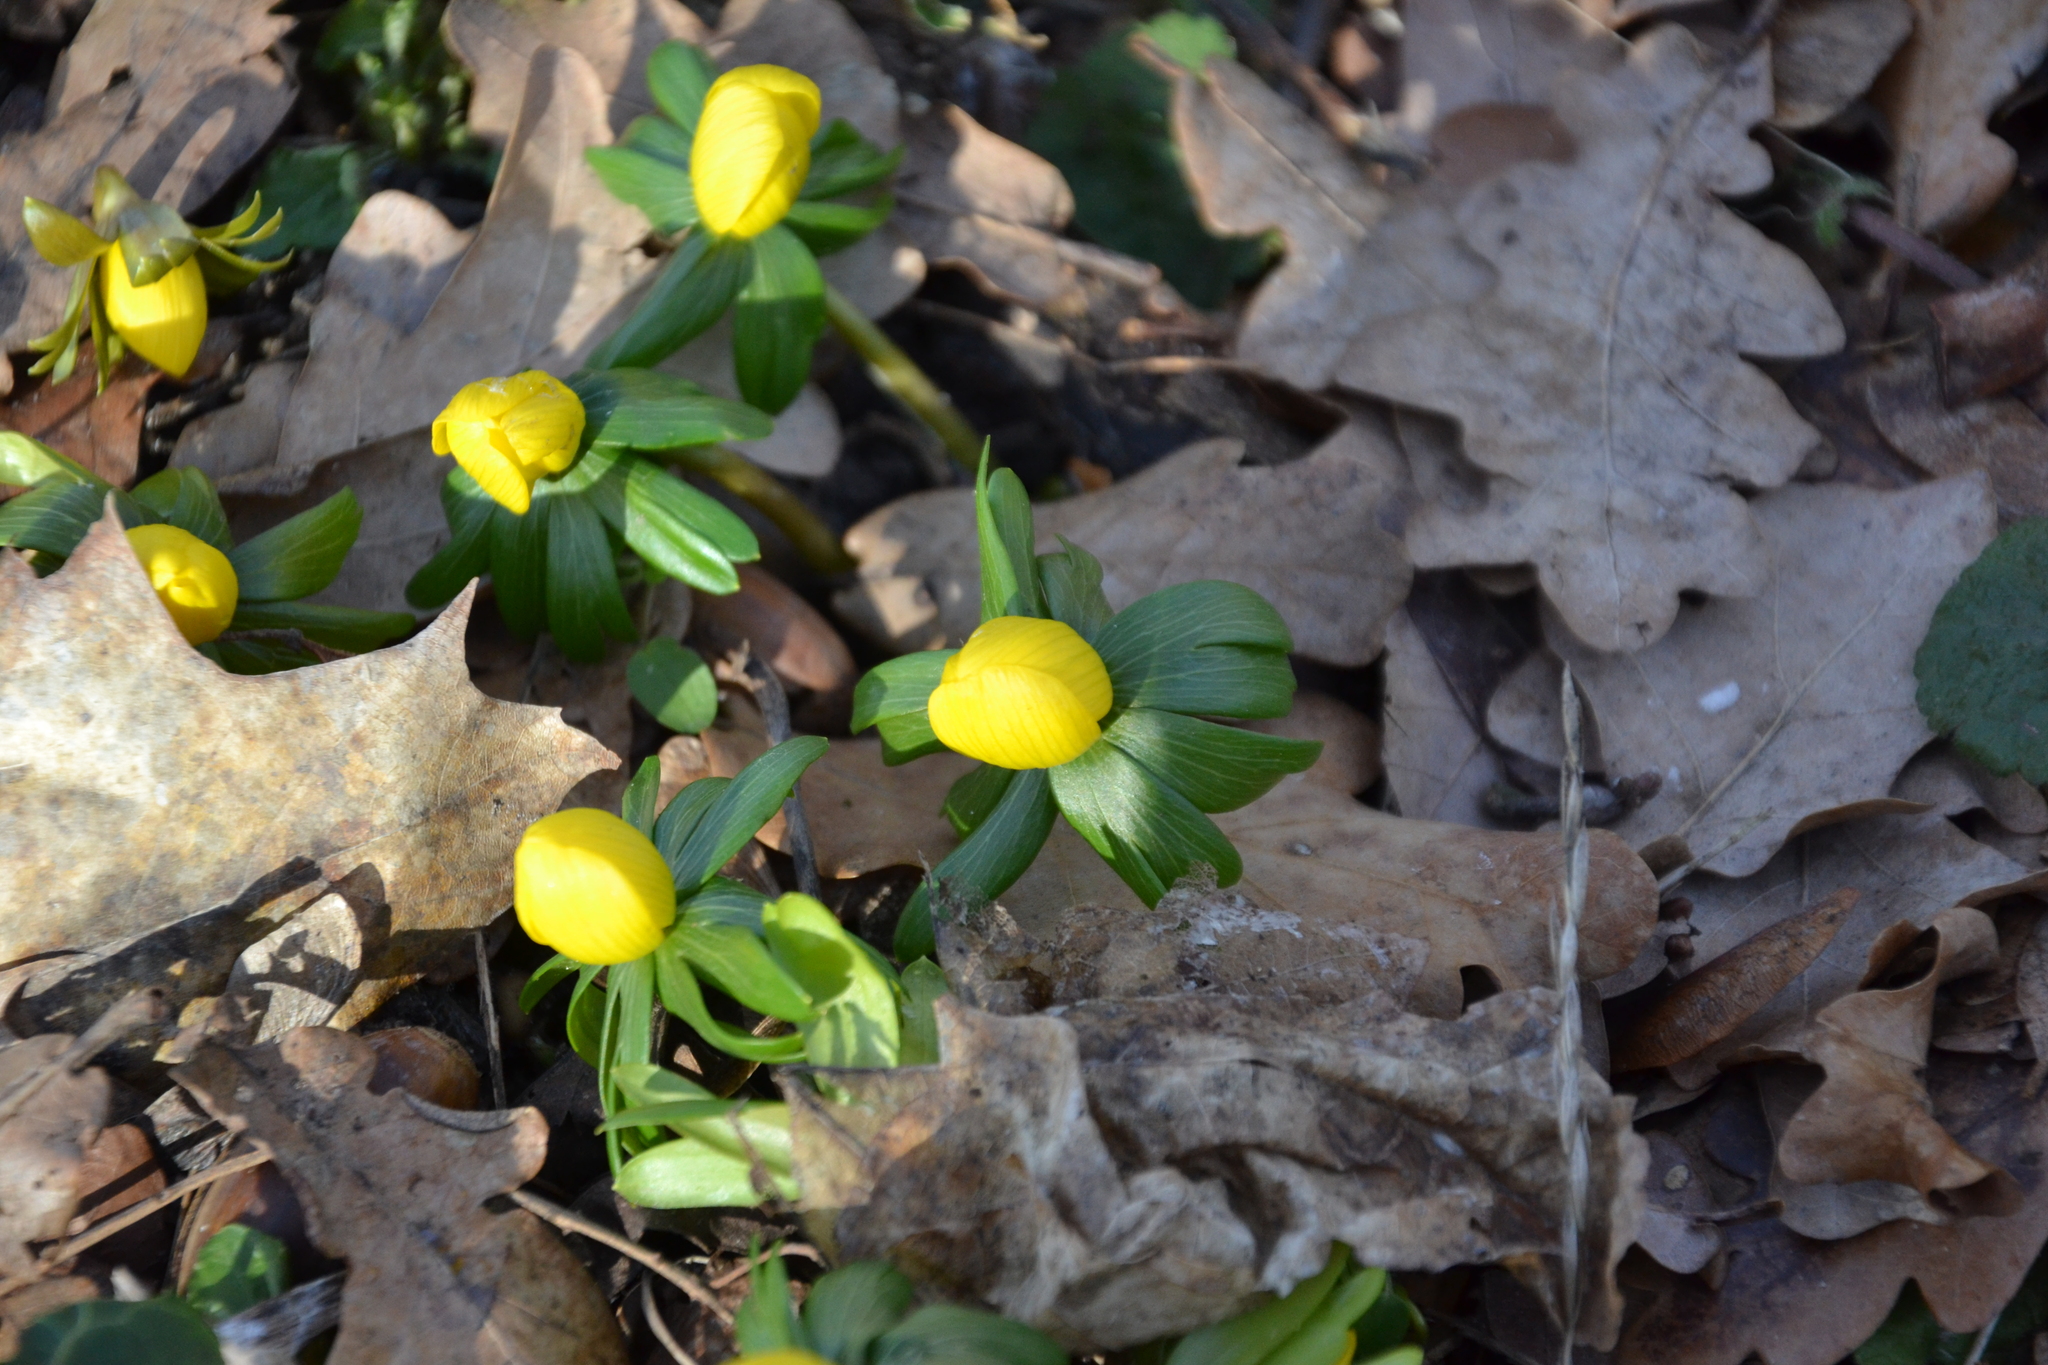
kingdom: Plantae
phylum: Tracheophyta
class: Magnoliopsida
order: Ranunculales
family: Ranunculaceae
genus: Eranthis
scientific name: Eranthis hyemalis
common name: Winter aconite
